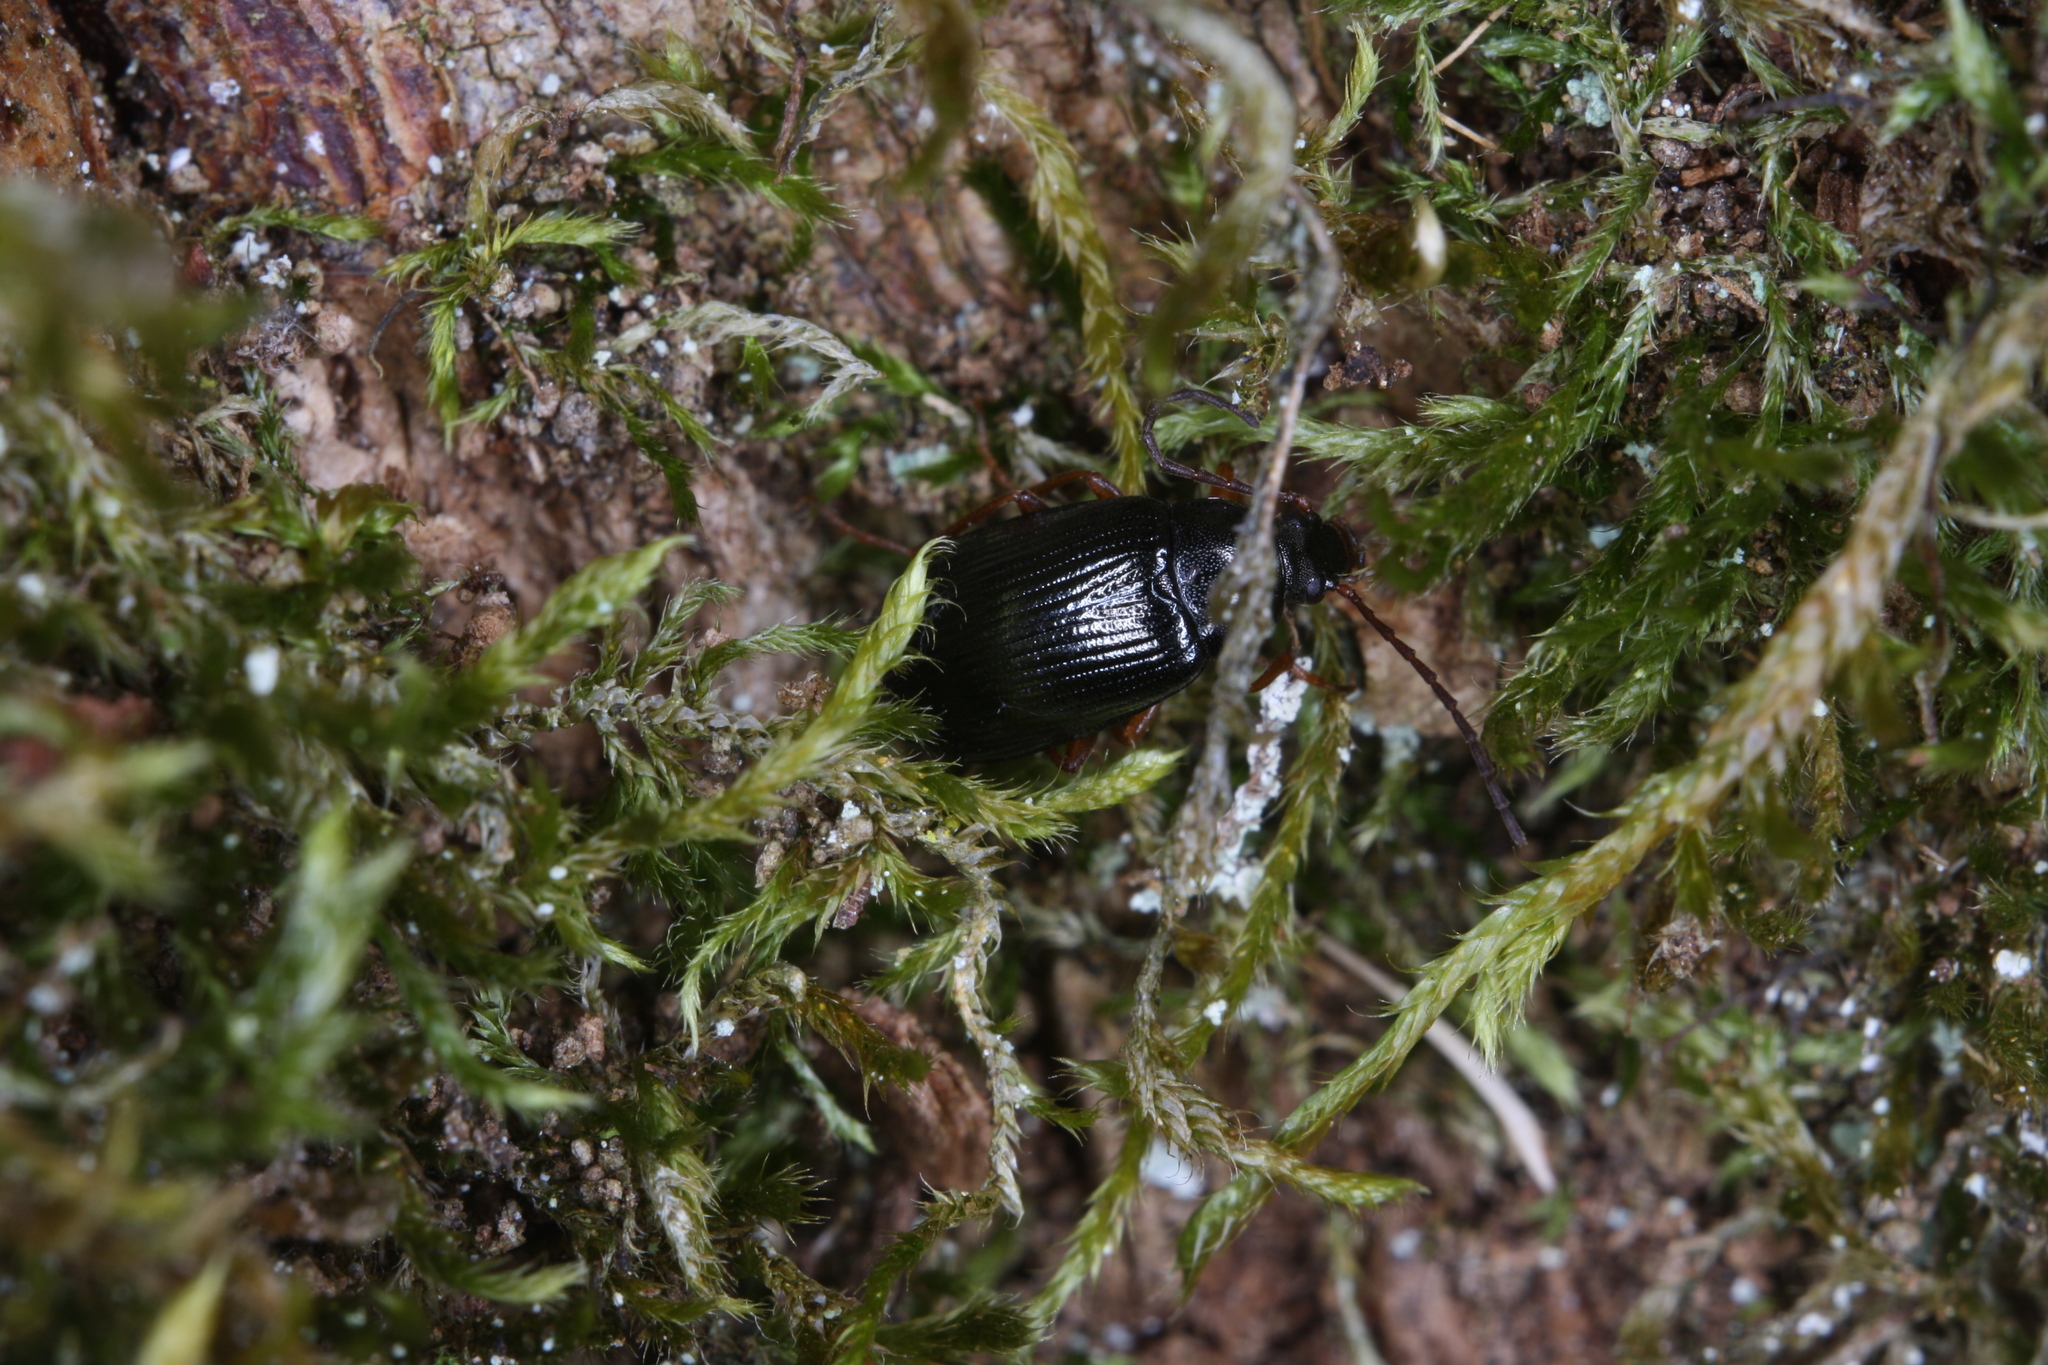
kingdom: Animalia
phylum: Arthropoda
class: Insecta
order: Coleoptera
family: Tenebrionidae
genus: Stenomax
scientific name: Stenomax aeneus
